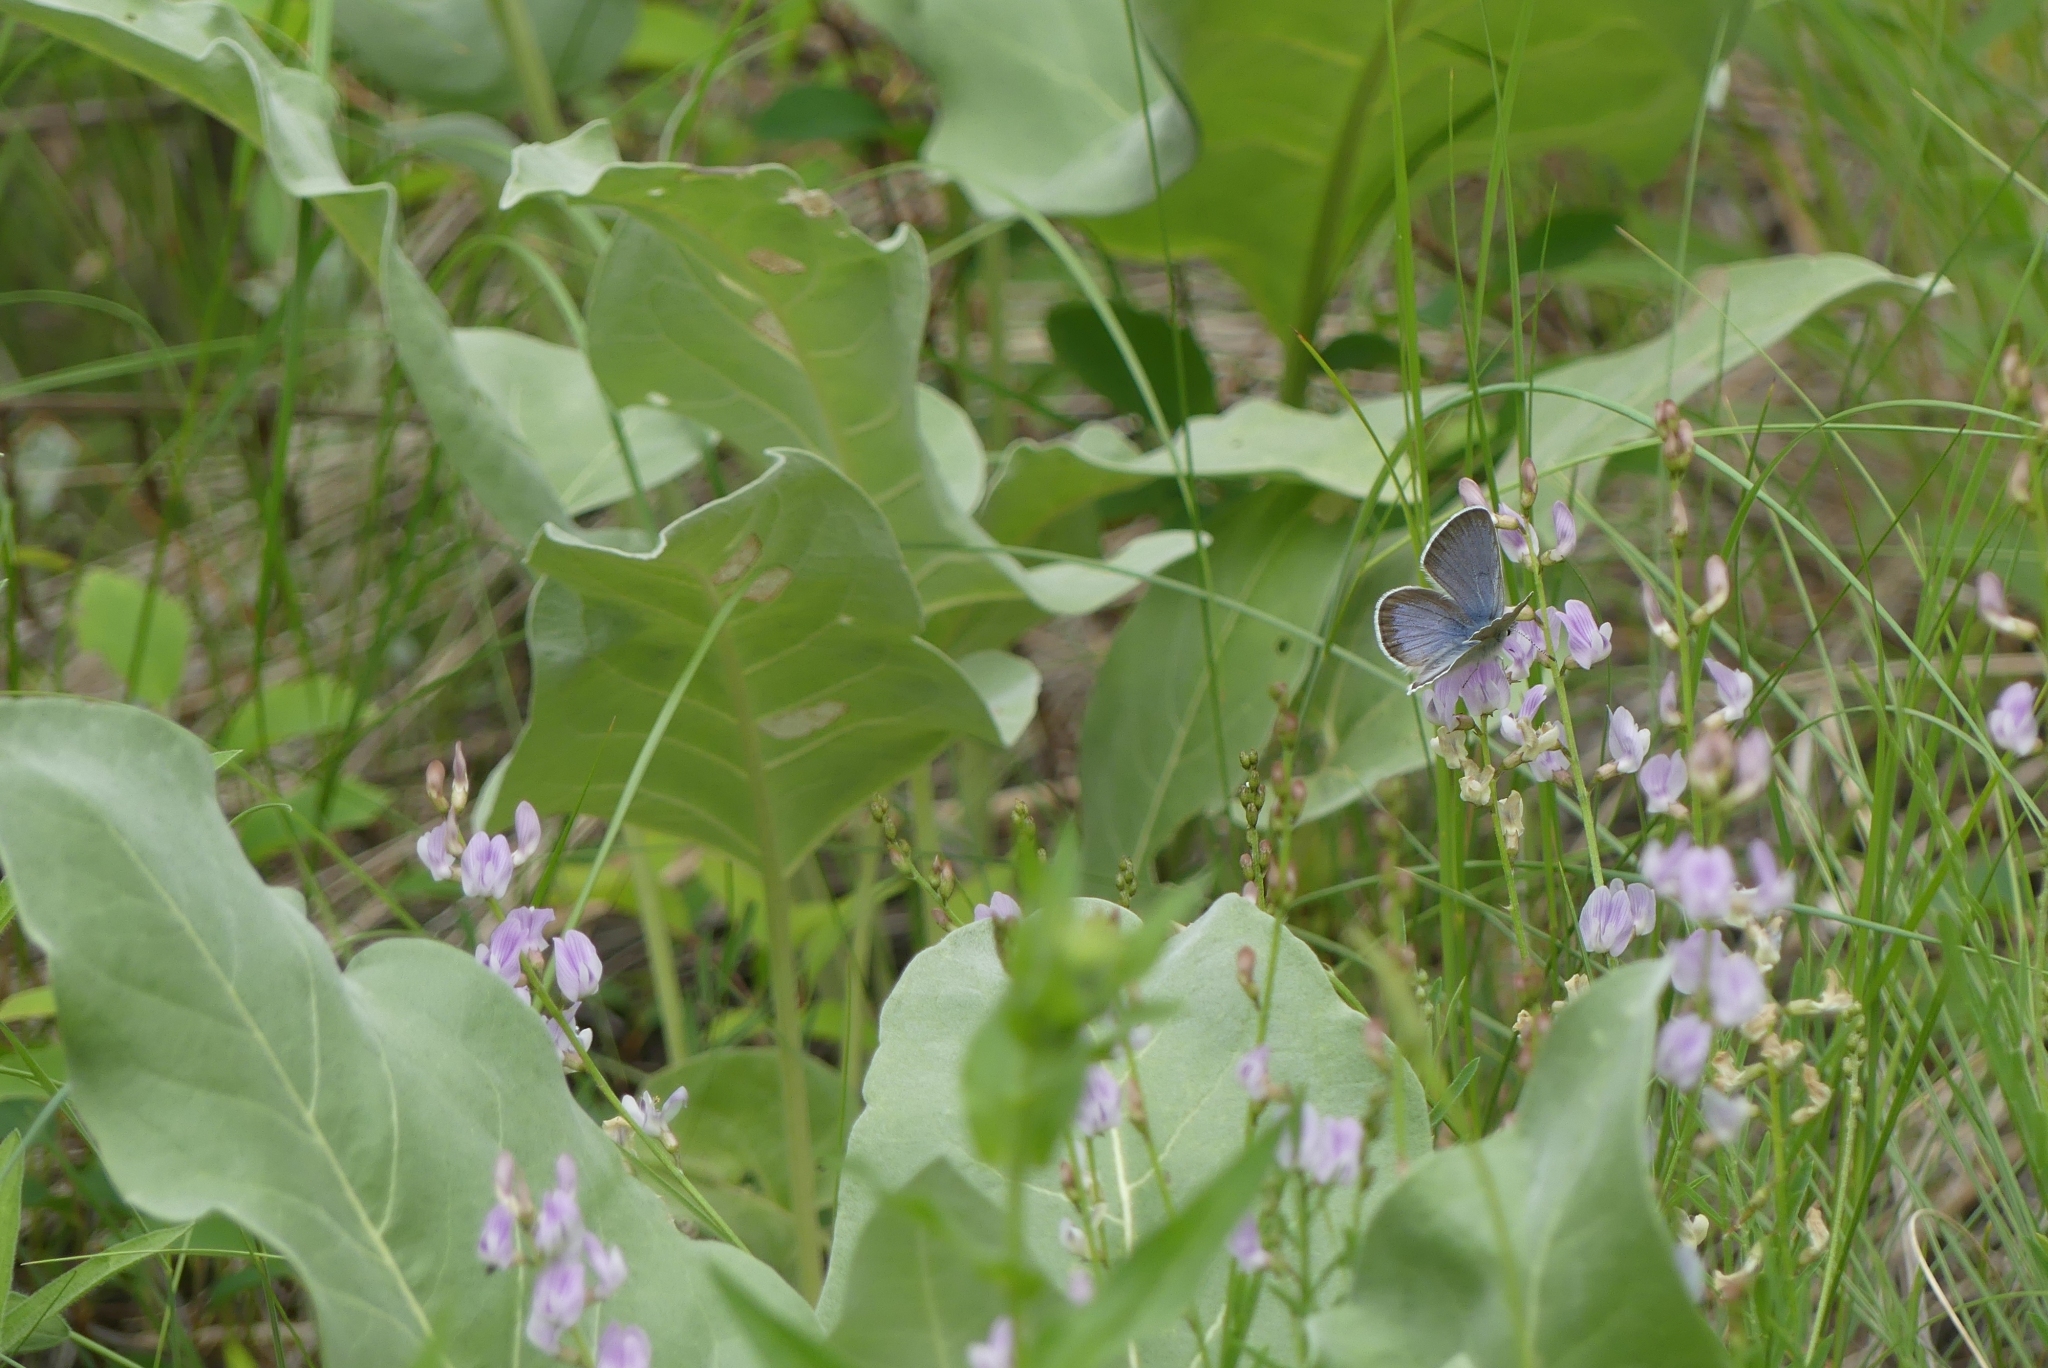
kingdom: Animalia
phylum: Arthropoda
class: Insecta
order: Lepidoptera
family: Lycaenidae
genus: Icaricia
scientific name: Icaricia icarioides
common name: Boisduval's blue
